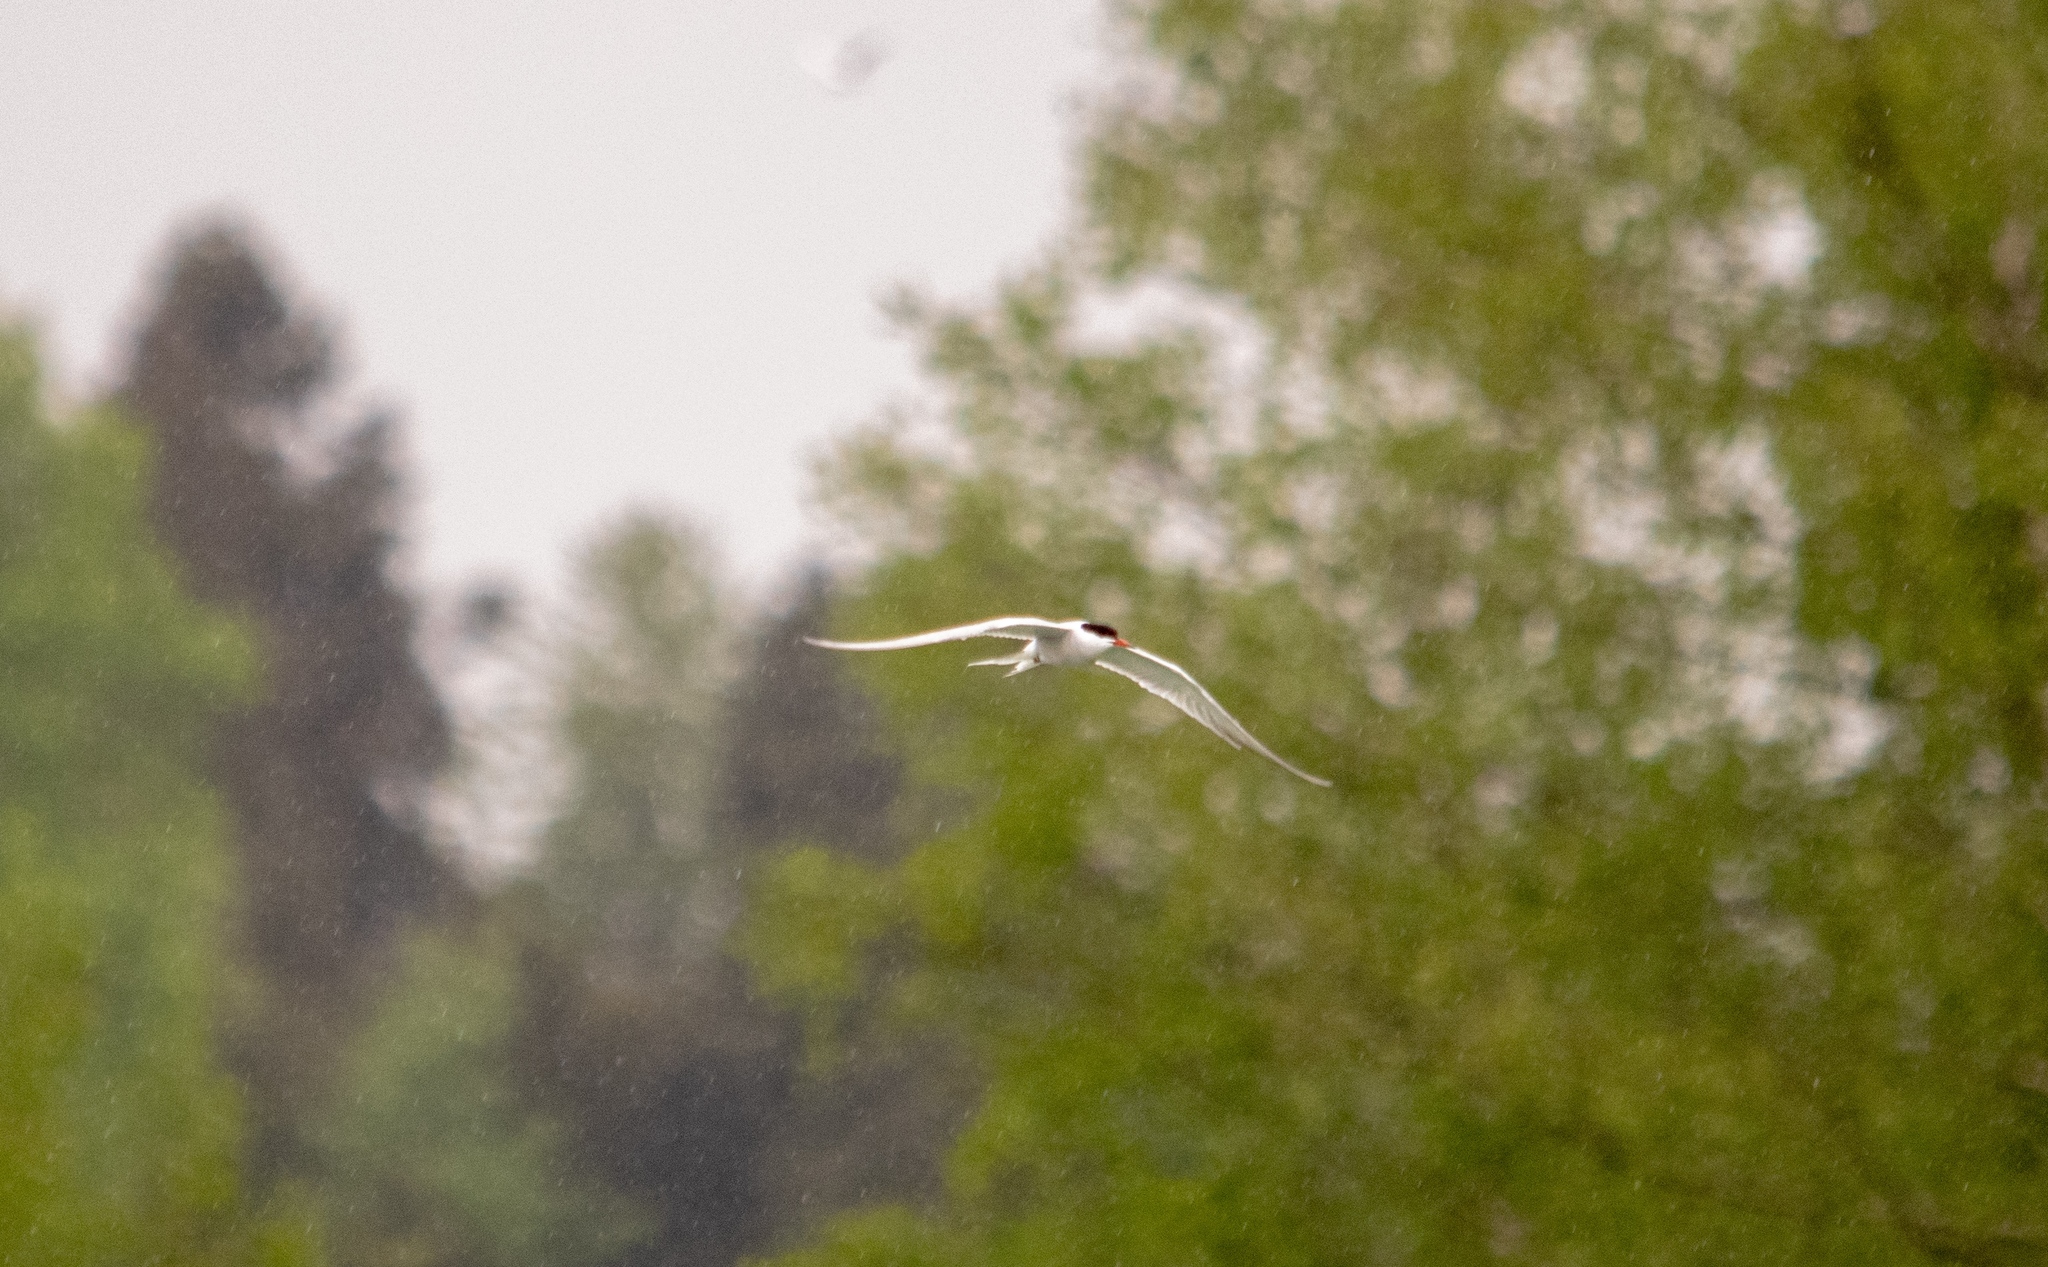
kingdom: Animalia
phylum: Chordata
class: Aves
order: Charadriiformes
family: Laridae
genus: Sterna
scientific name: Sterna hirundo
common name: Common tern
